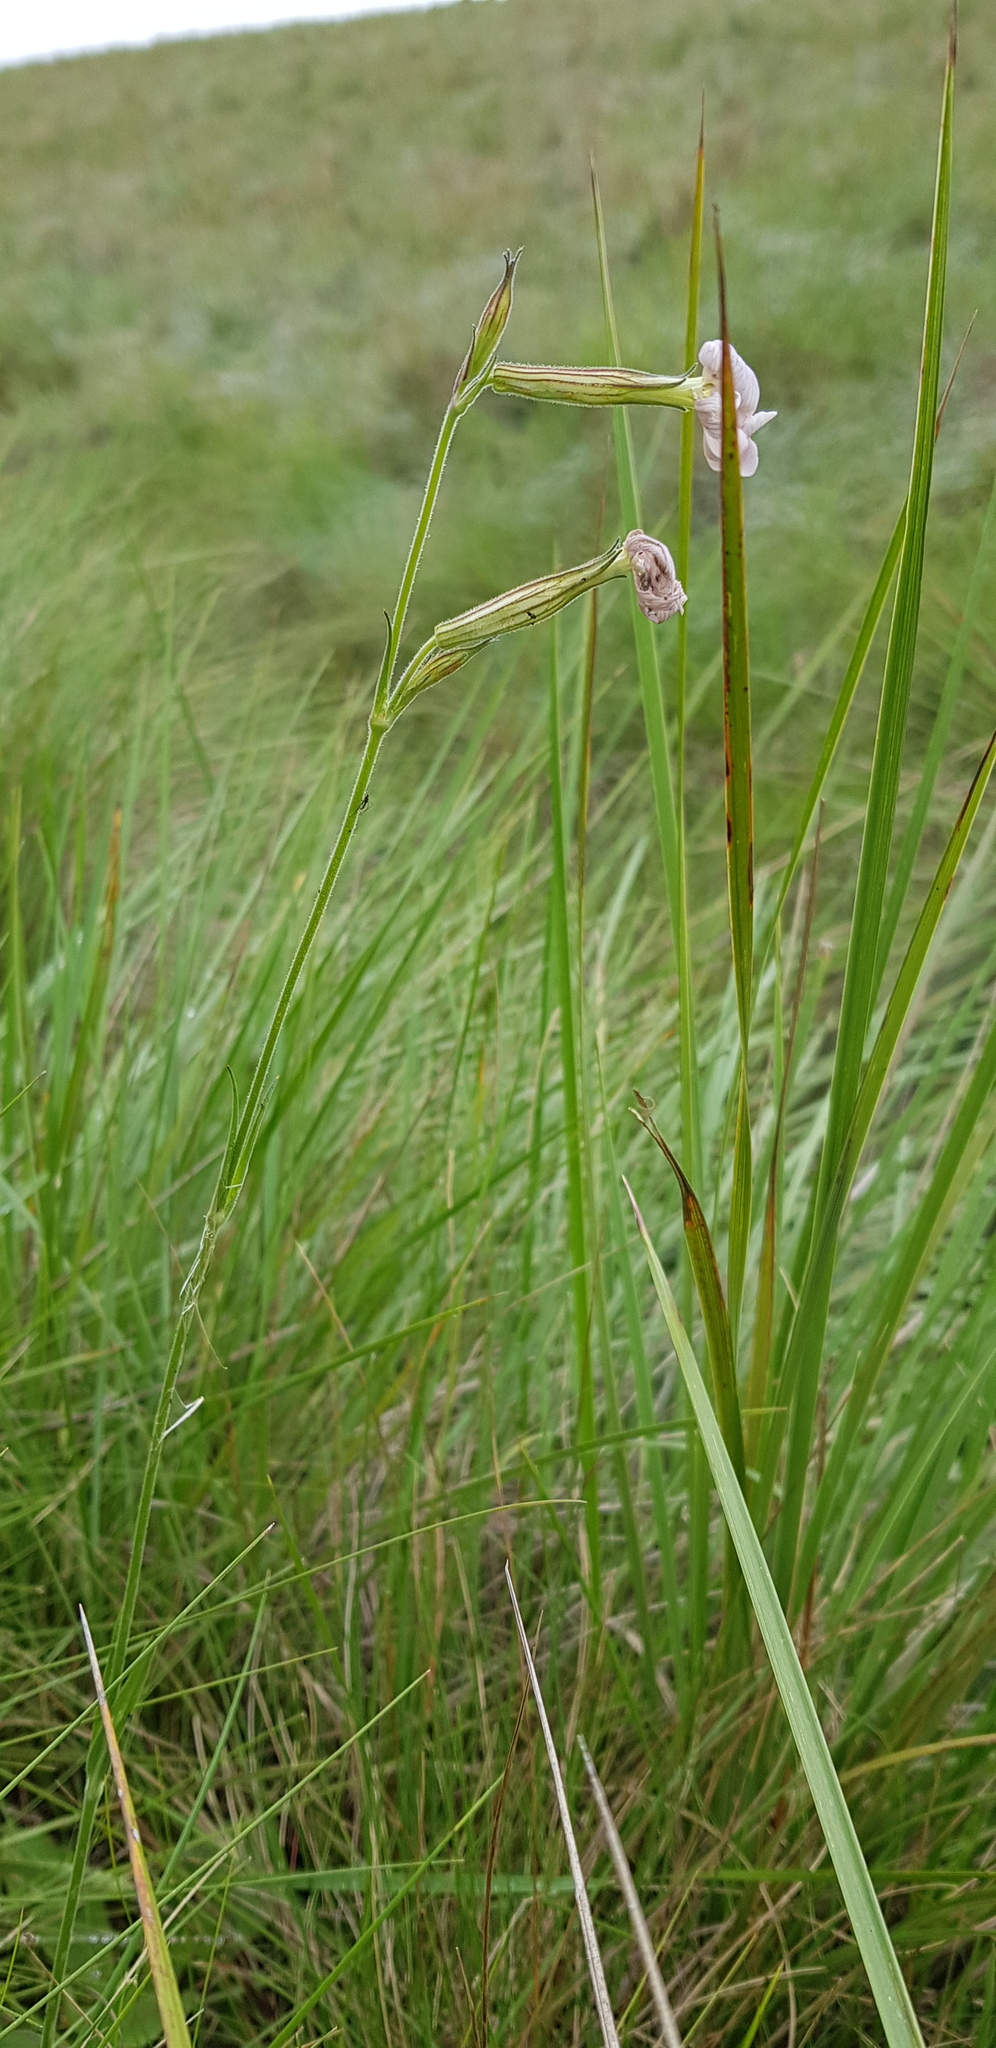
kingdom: Plantae
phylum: Tracheophyta
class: Magnoliopsida
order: Caryophyllales
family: Caryophyllaceae
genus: Silene
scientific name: Silene undulata
